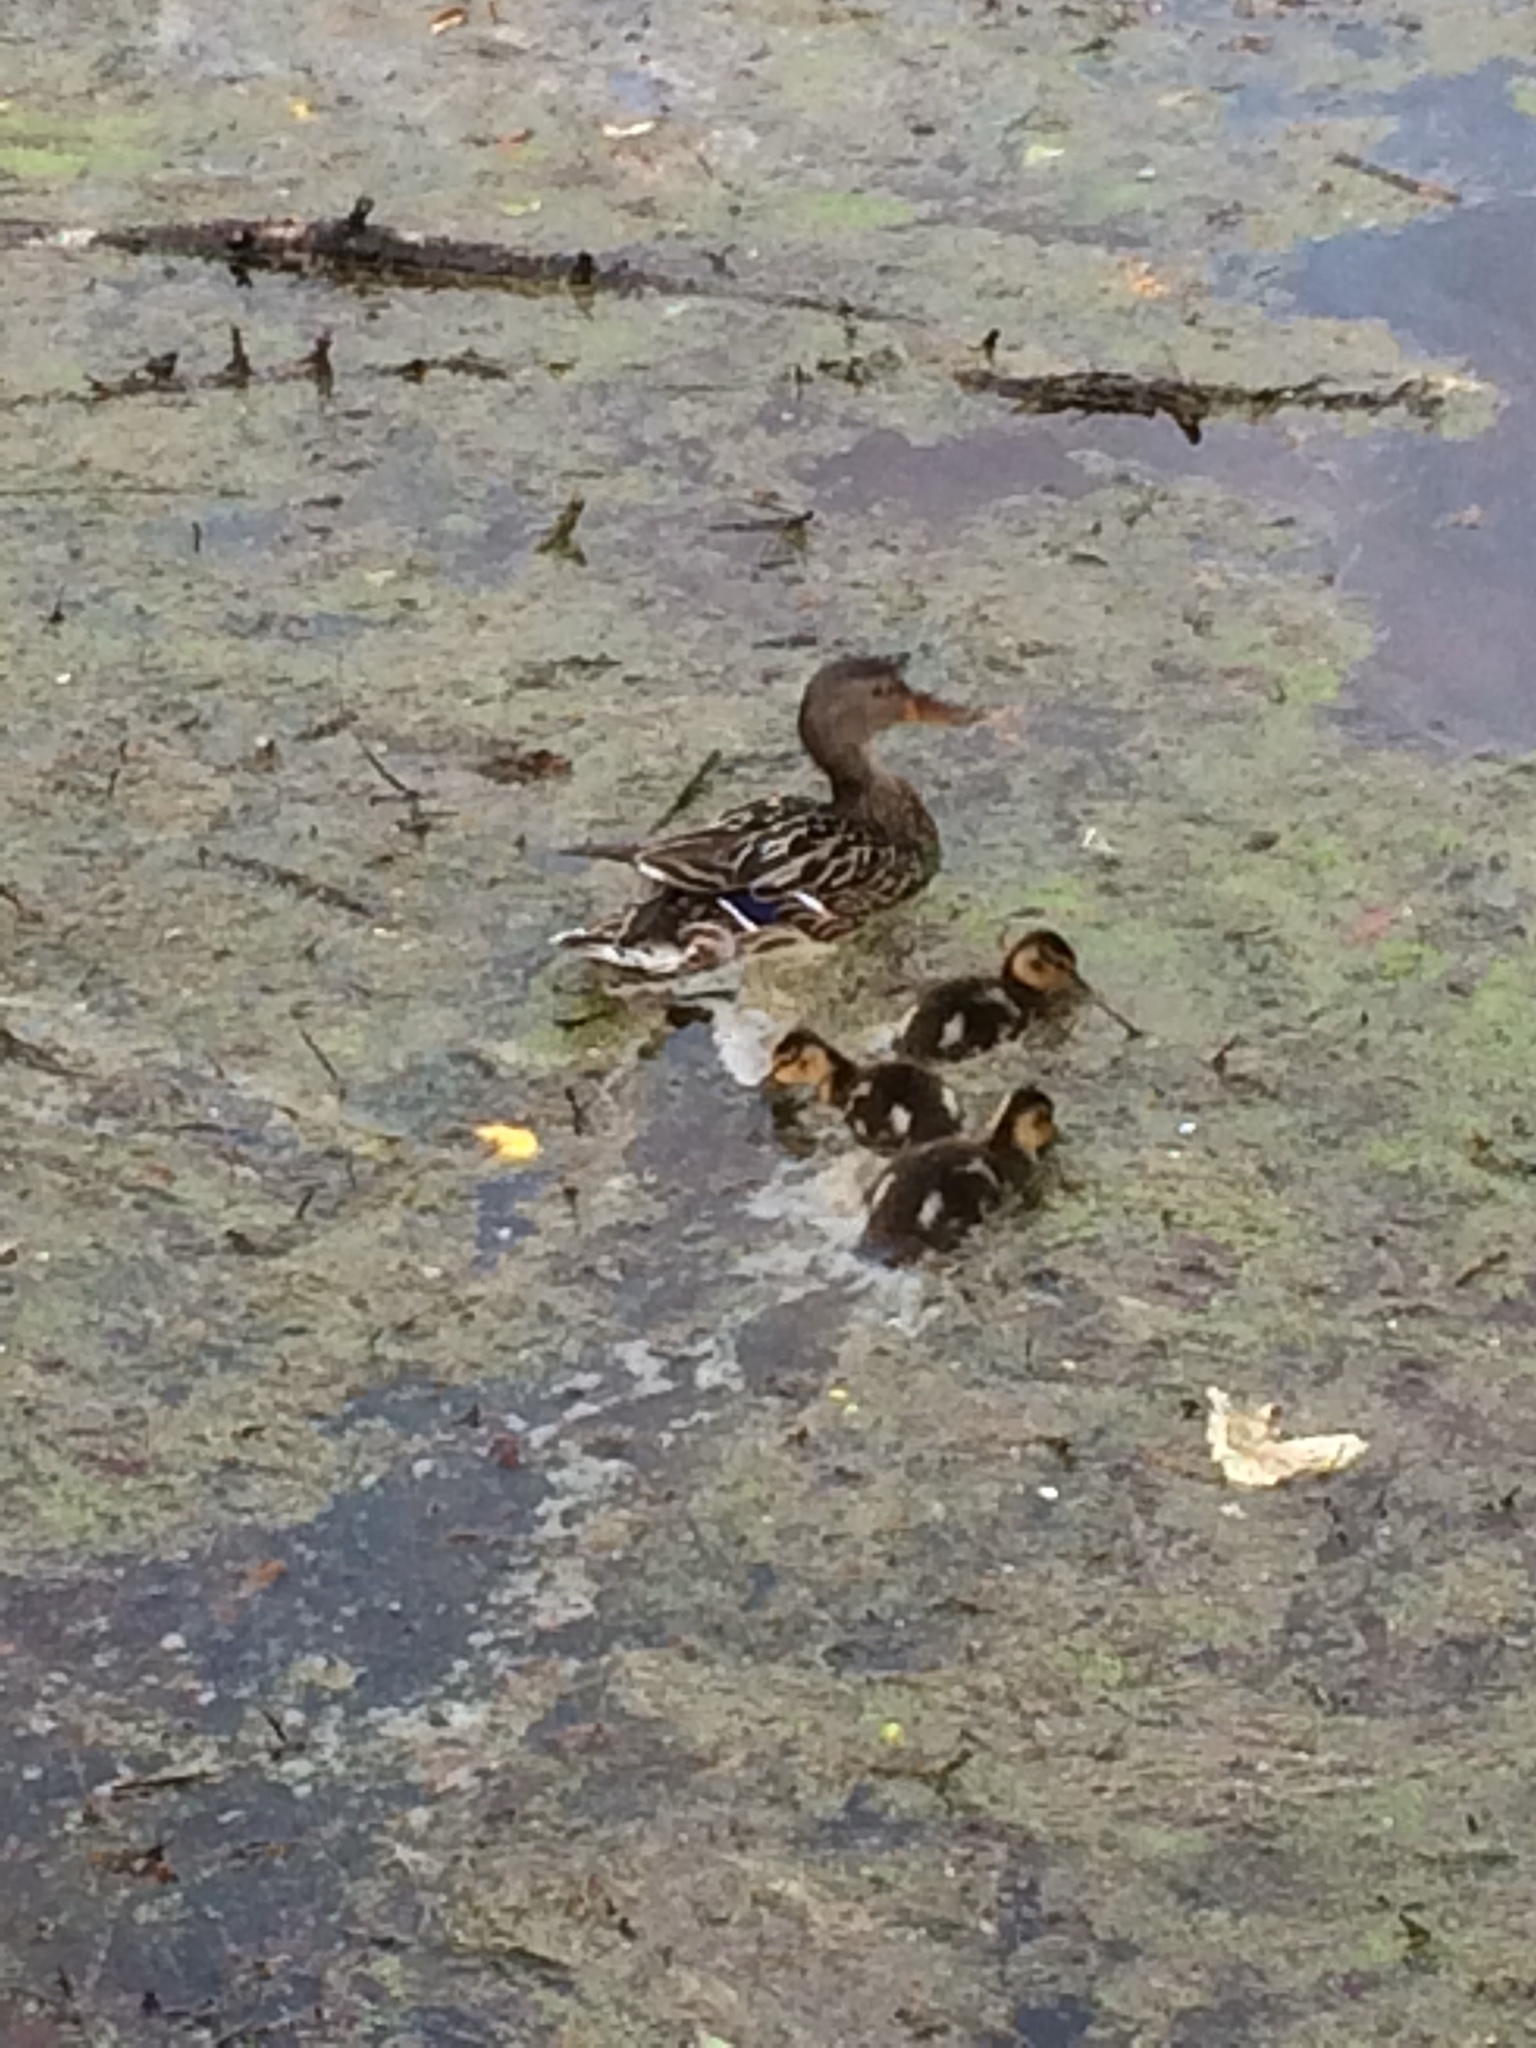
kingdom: Animalia
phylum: Chordata
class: Aves
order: Anseriformes
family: Anatidae
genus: Anas
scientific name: Anas platyrhynchos
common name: Mallard
